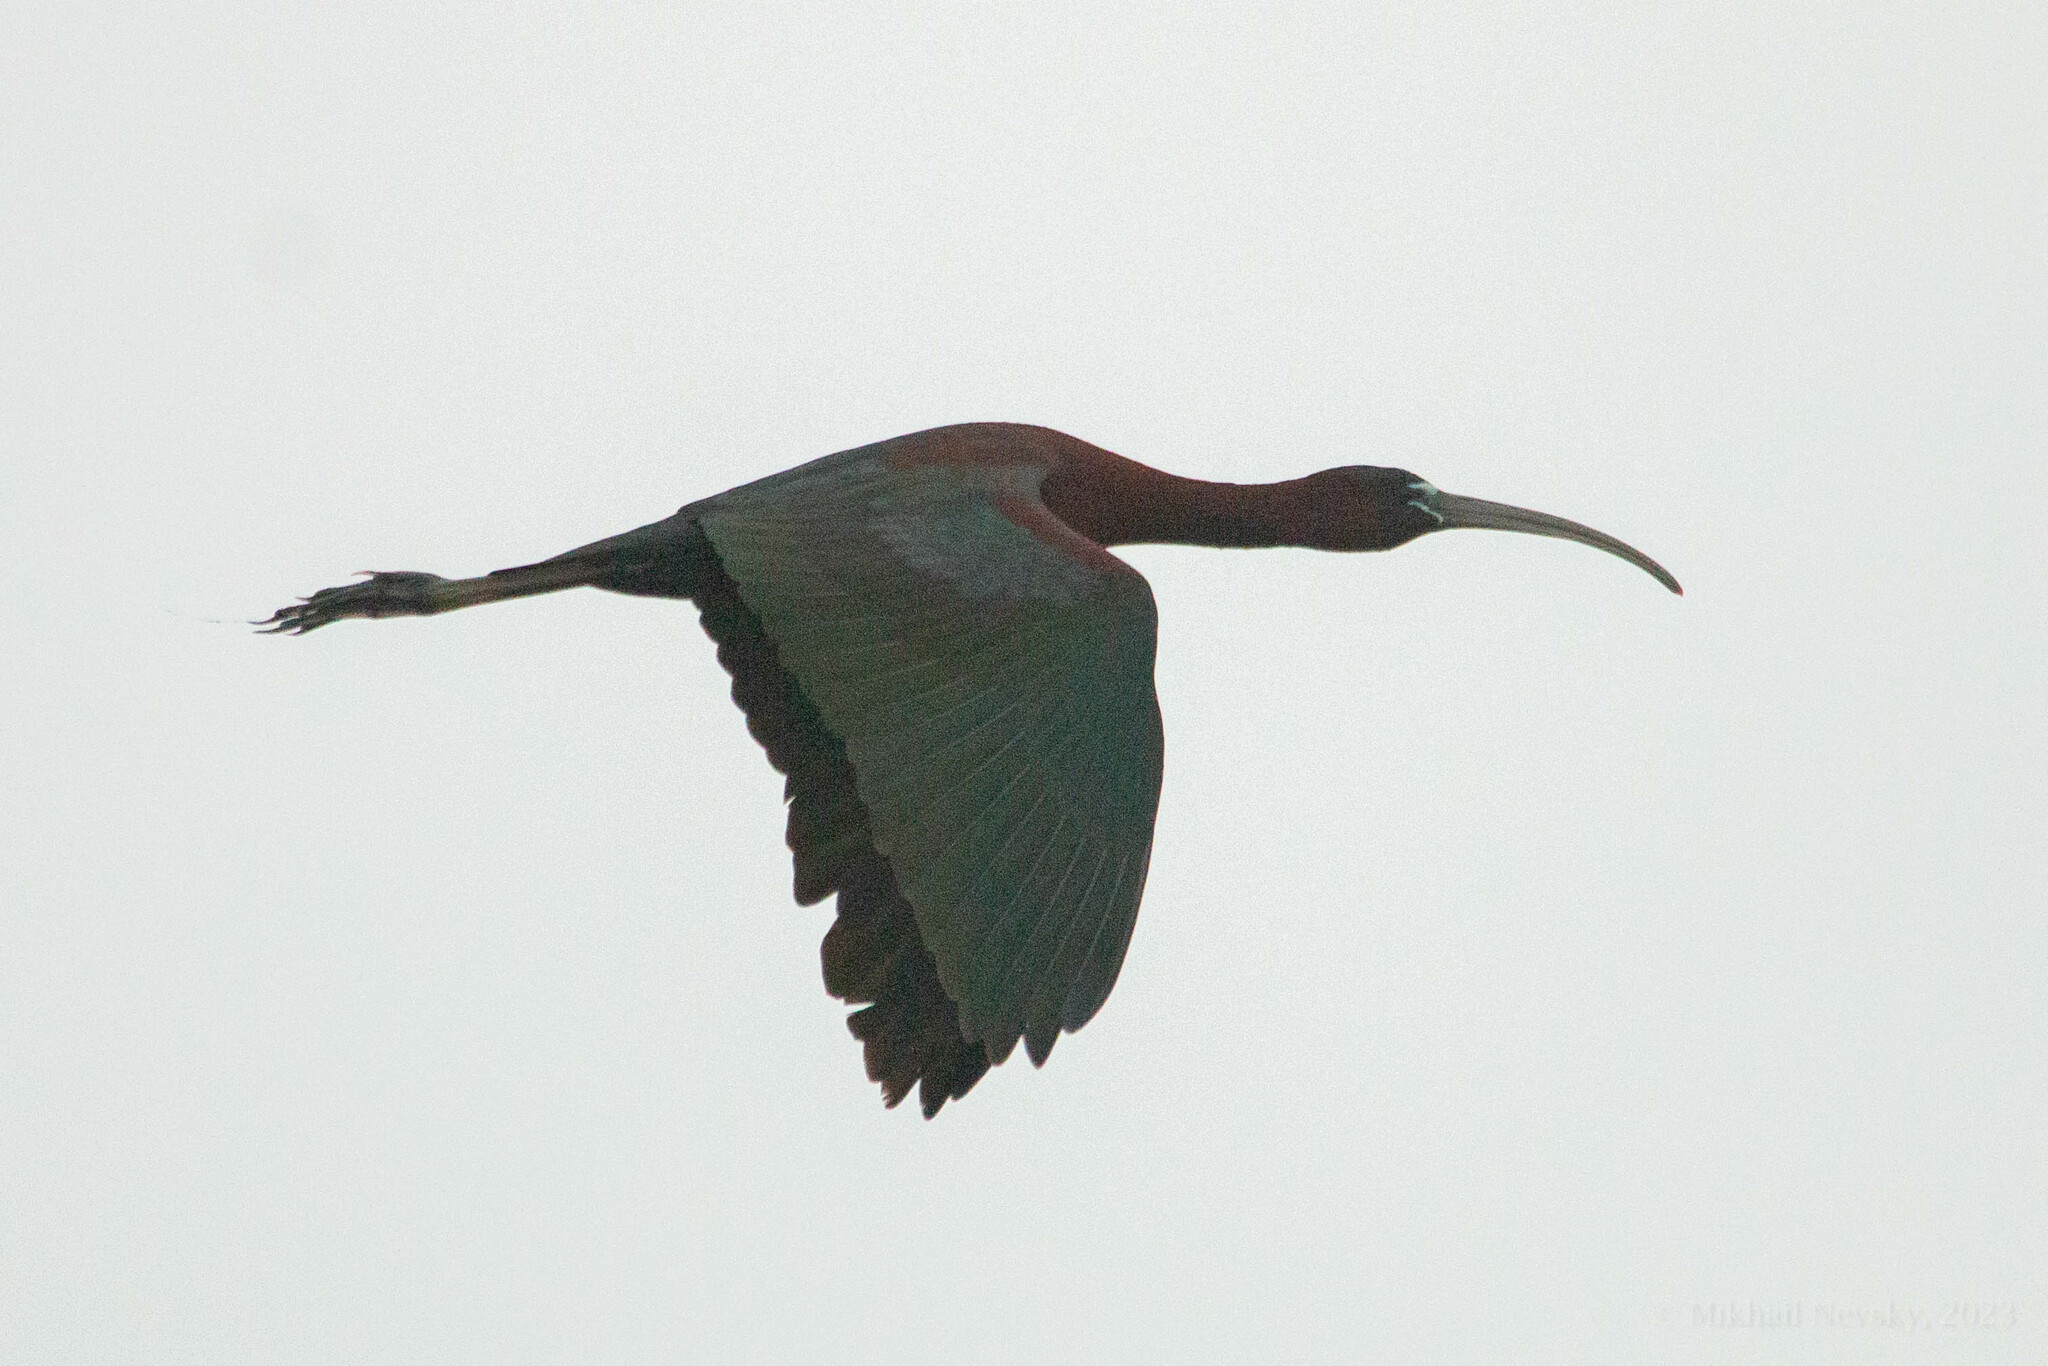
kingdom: Animalia
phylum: Chordata
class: Aves
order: Pelecaniformes
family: Threskiornithidae
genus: Plegadis
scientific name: Plegadis falcinellus
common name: Glossy ibis
